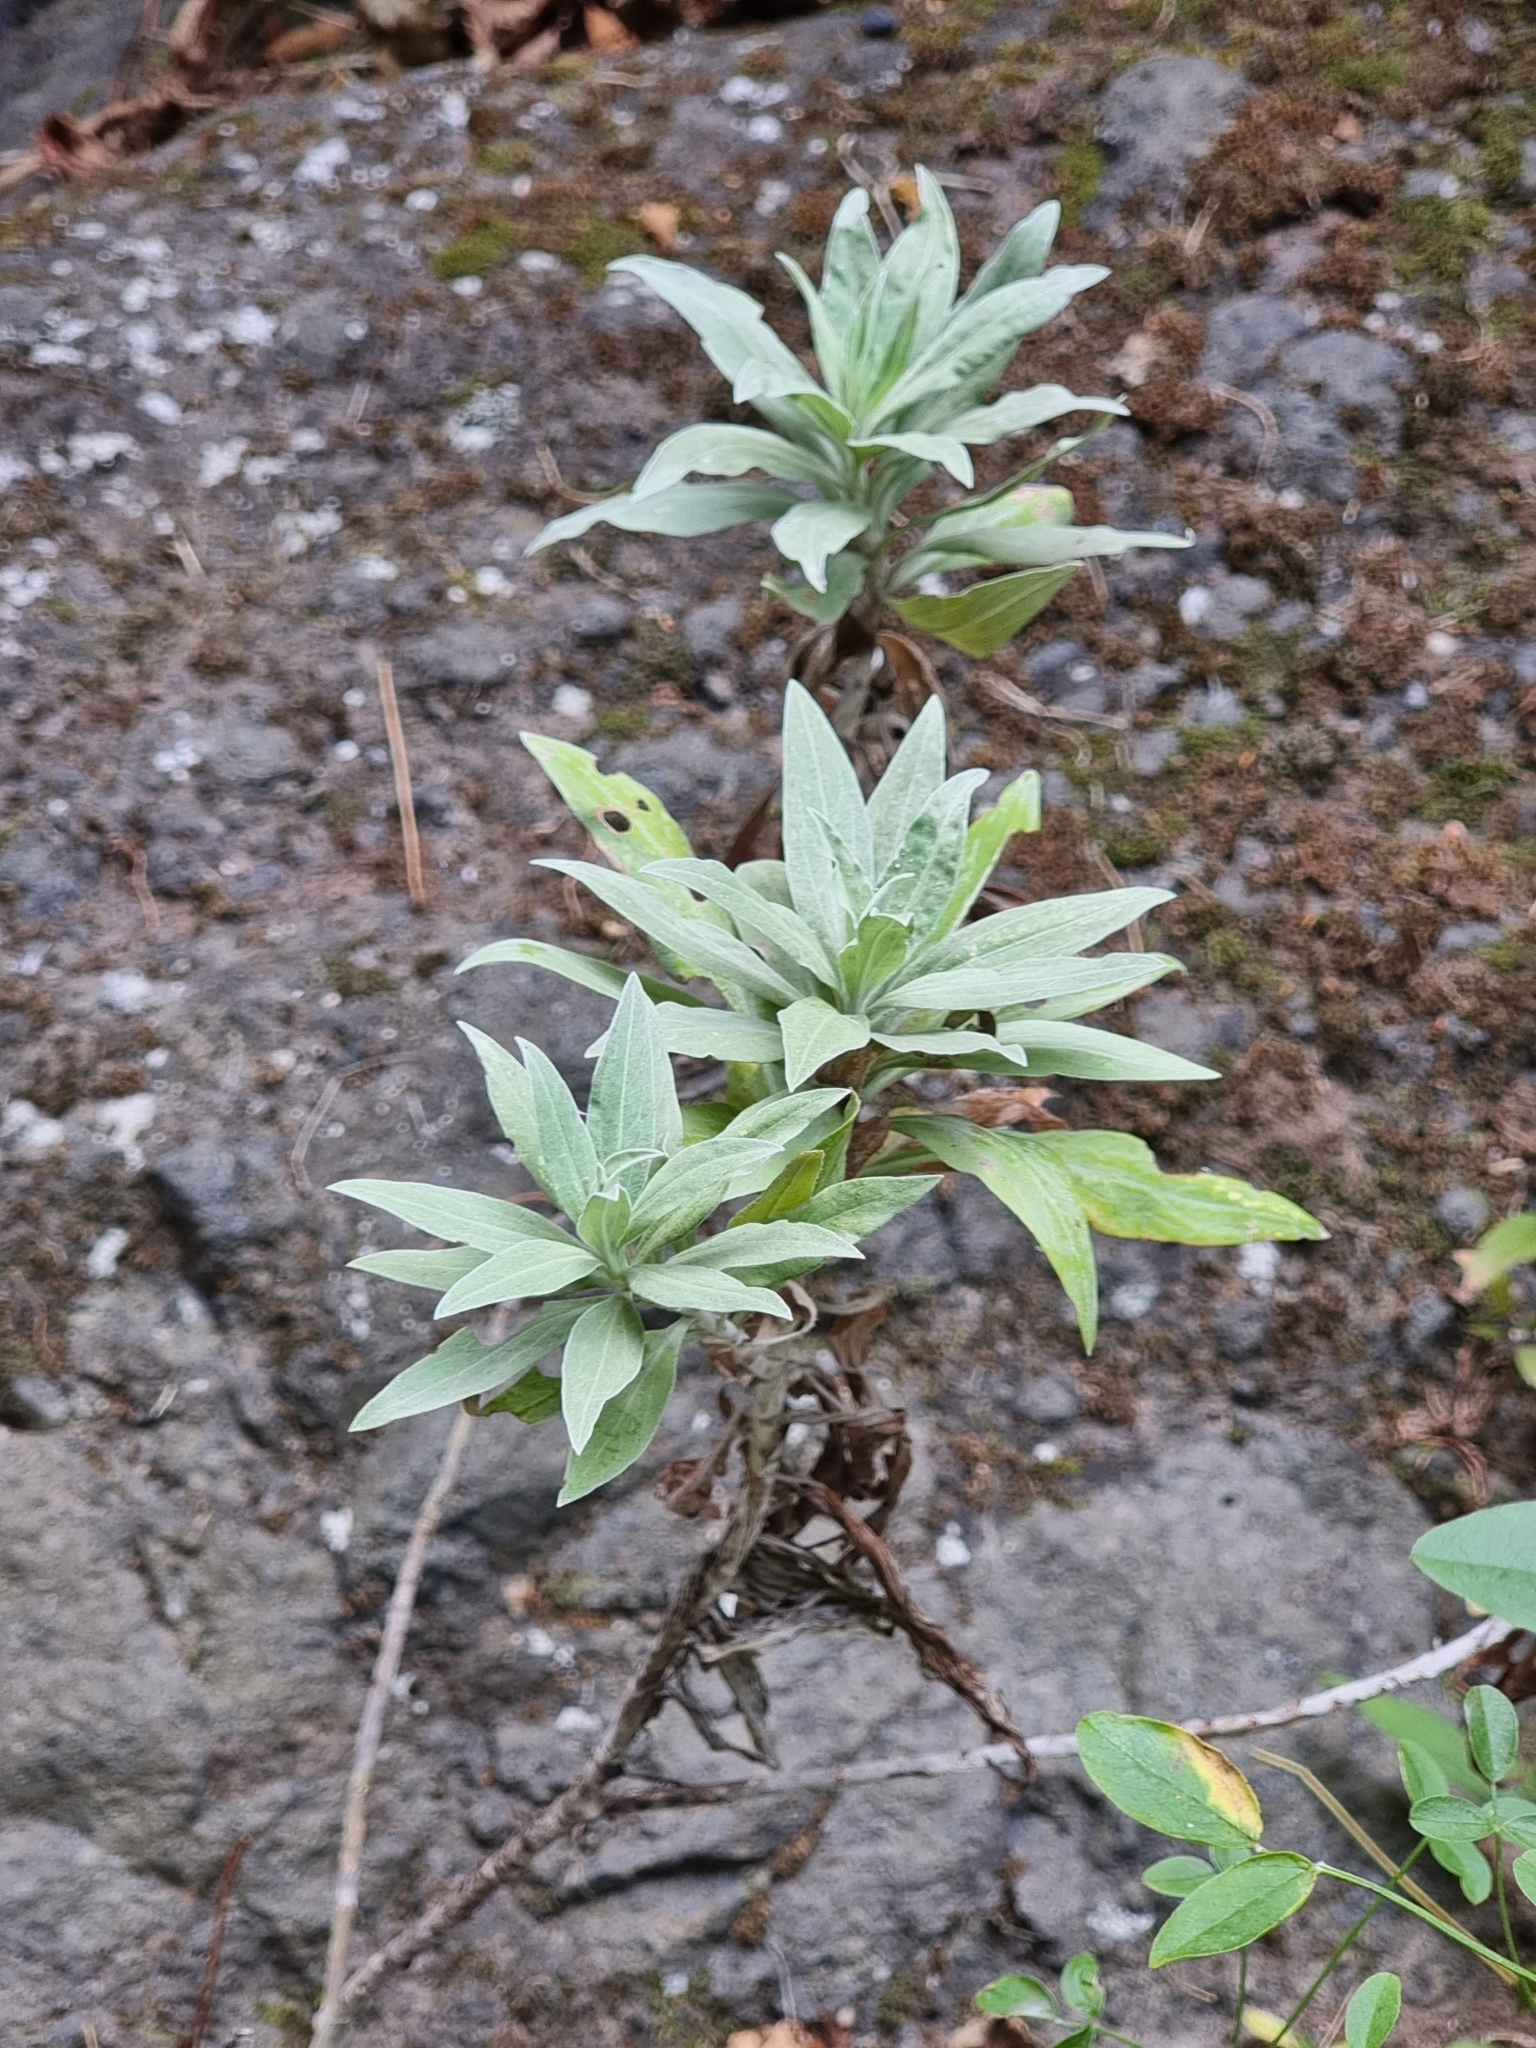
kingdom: Plantae
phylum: Tracheophyta
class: Magnoliopsida
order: Asterales
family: Asteraceae
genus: Helichrysum
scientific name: Helichrysum melaleucum
